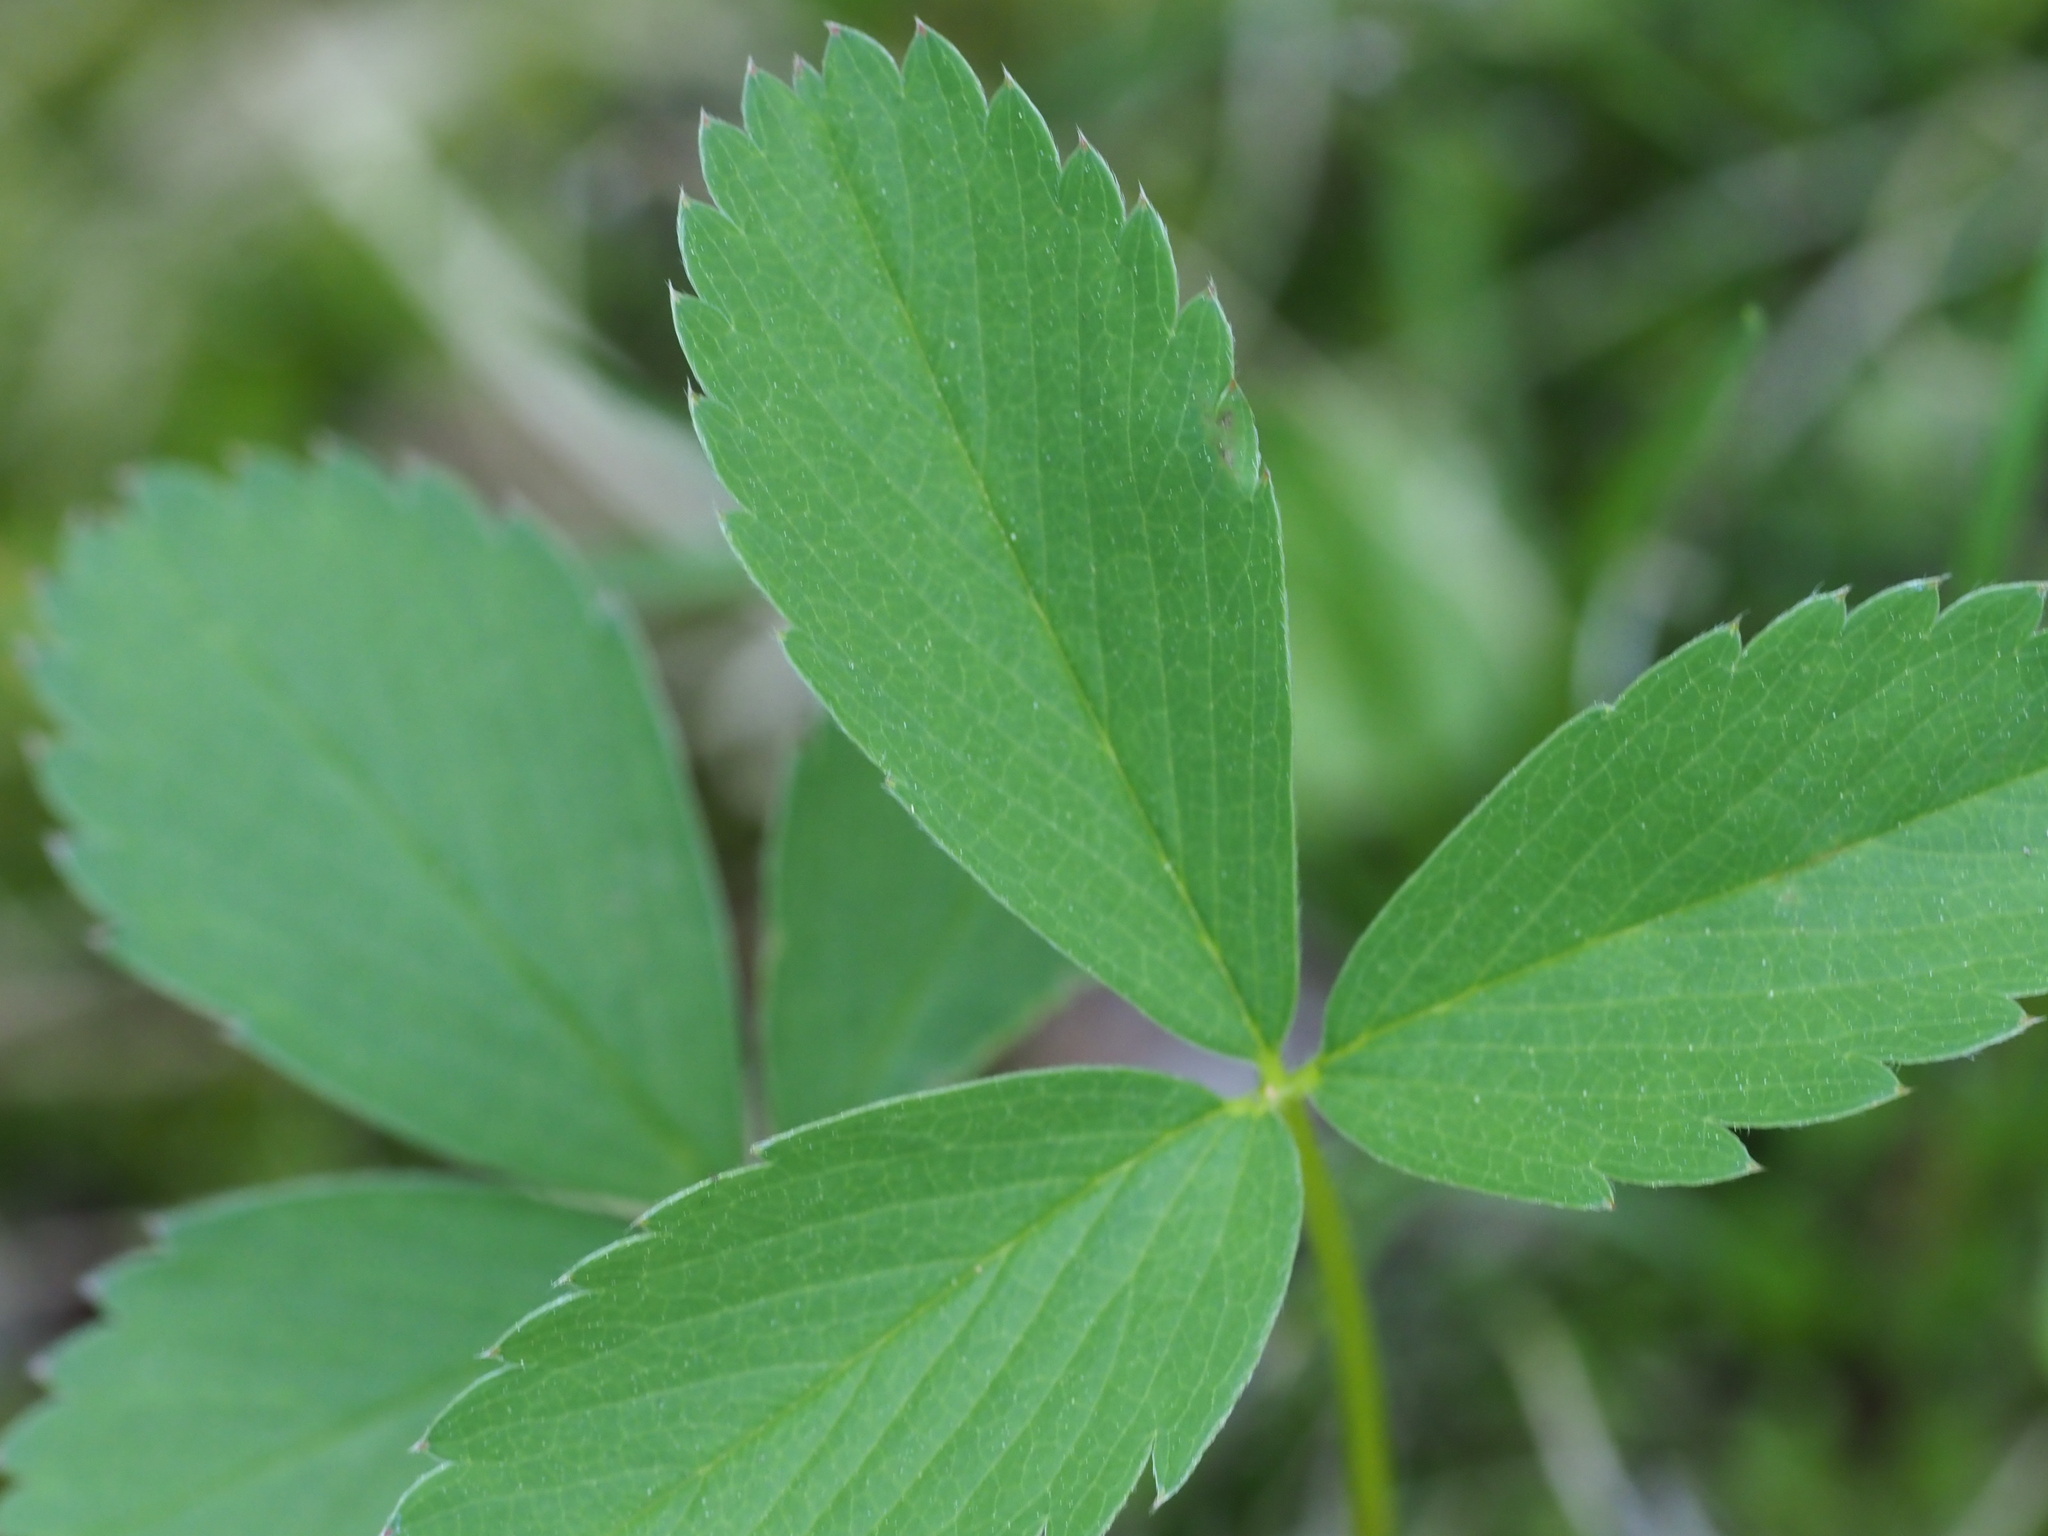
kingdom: Plantae
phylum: Tracheophyta
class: Magnoliopsida
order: Rosales
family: Rosaceae
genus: Fragaria
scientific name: Fragaria virginiana
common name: Thickleaved wild strawberry
